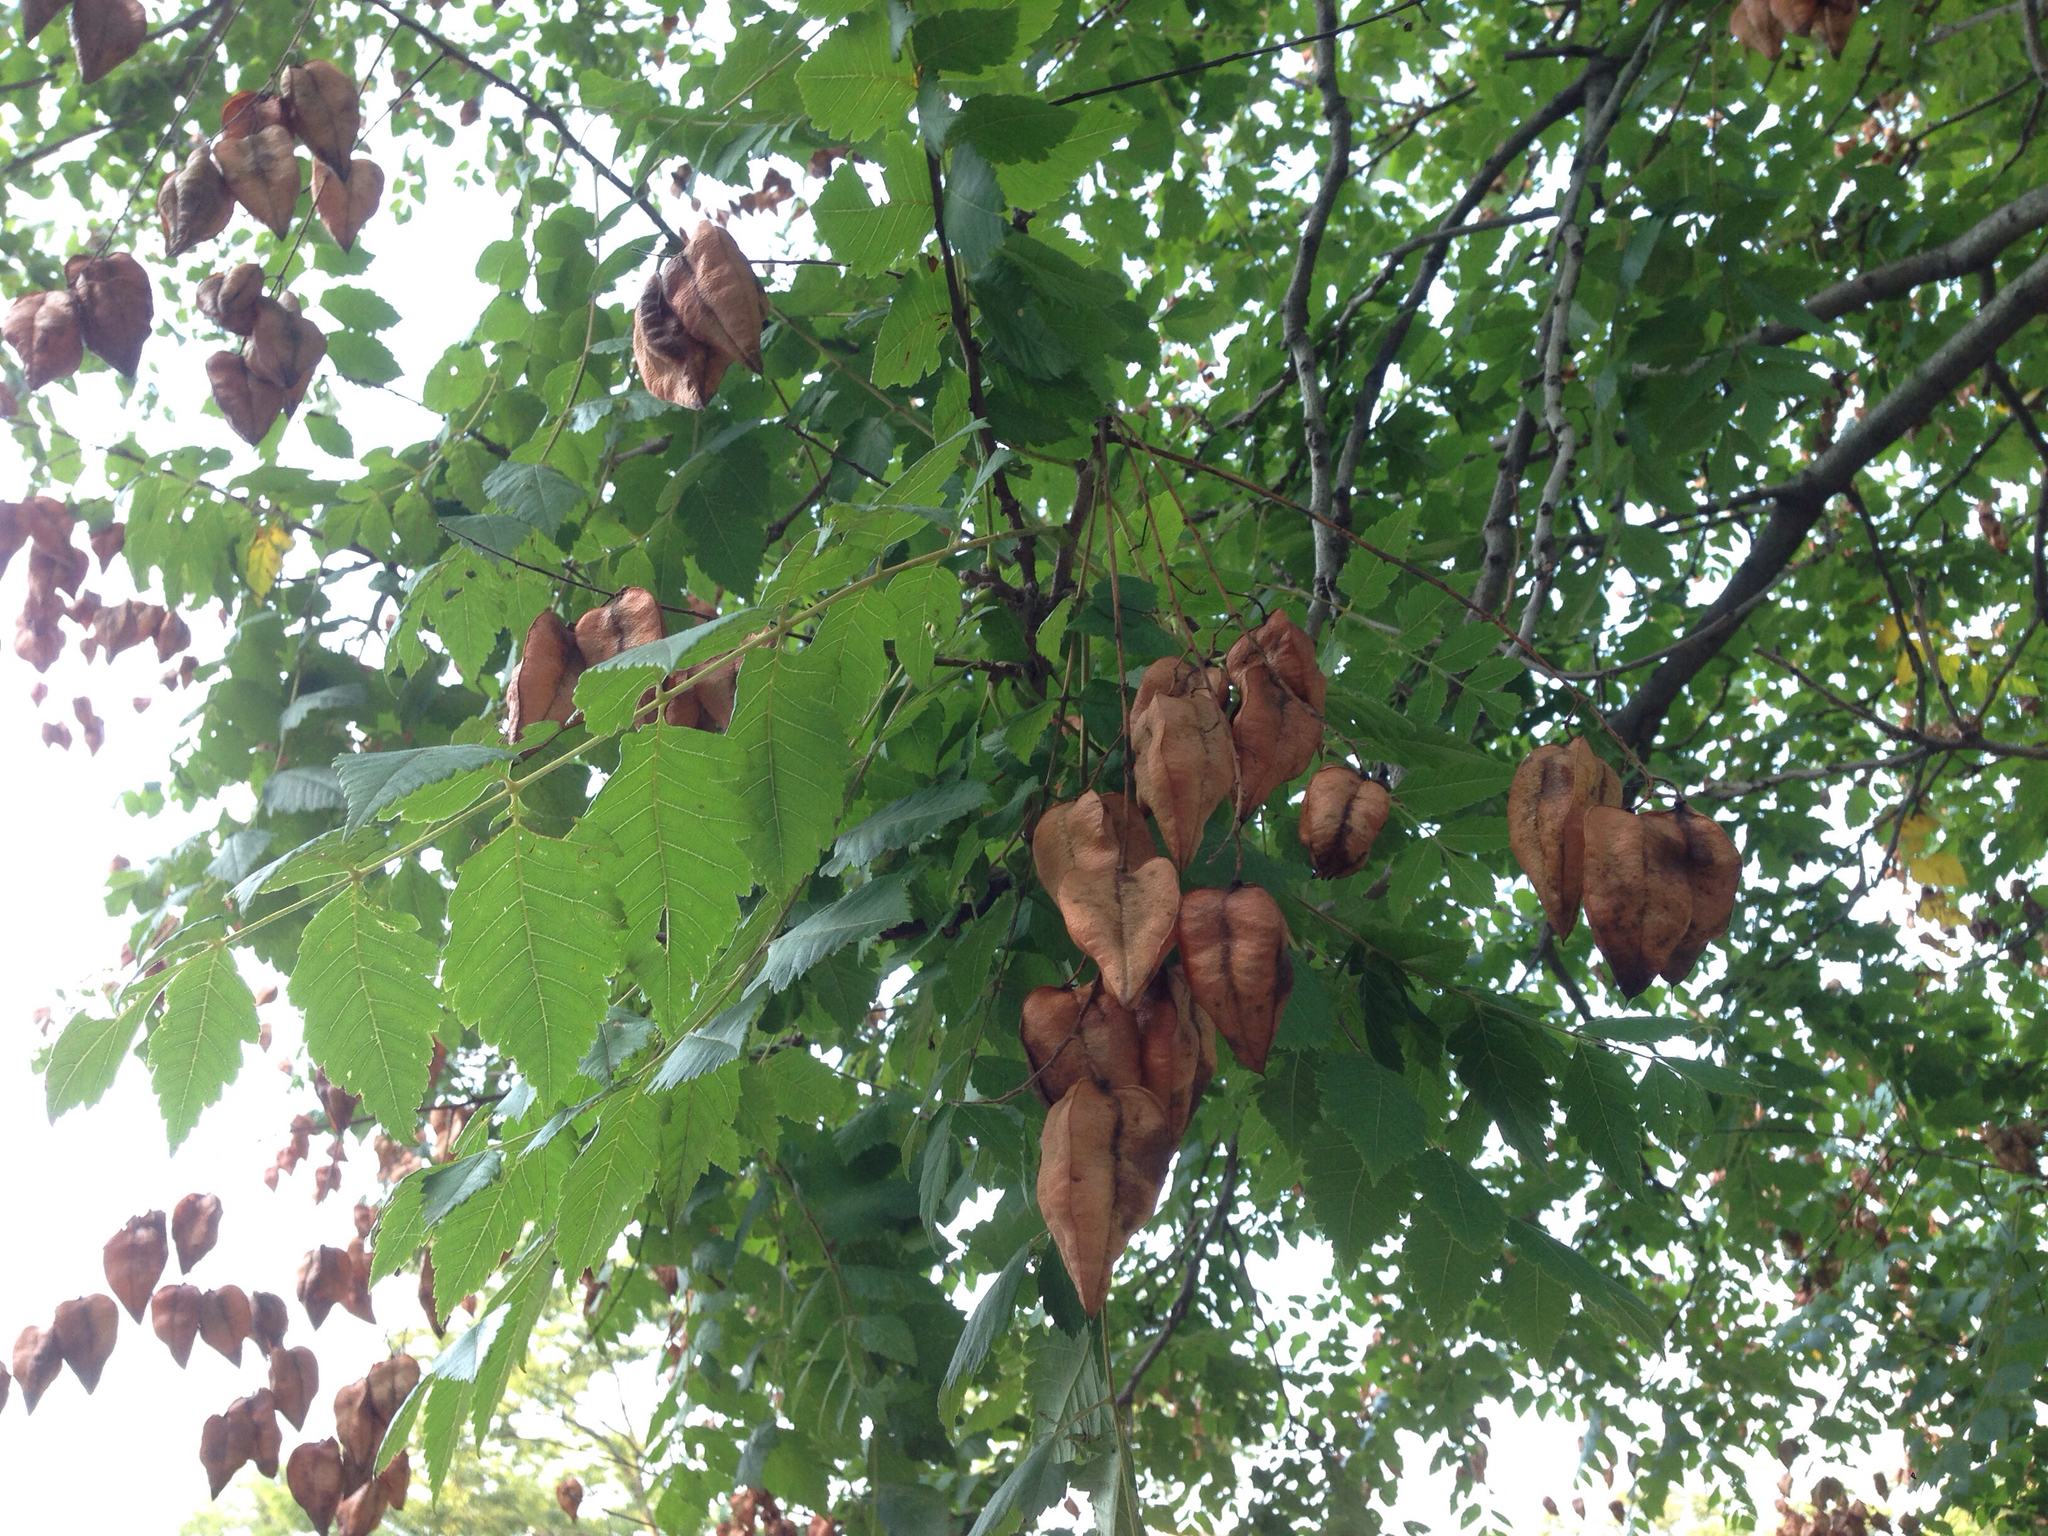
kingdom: Plantae
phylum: Tracheophyta
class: Magnoliopsida
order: Sapindales
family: Sapindaceae
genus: Koelreuteria
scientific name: Koelreuteria paniculata
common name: Pride-of-india
